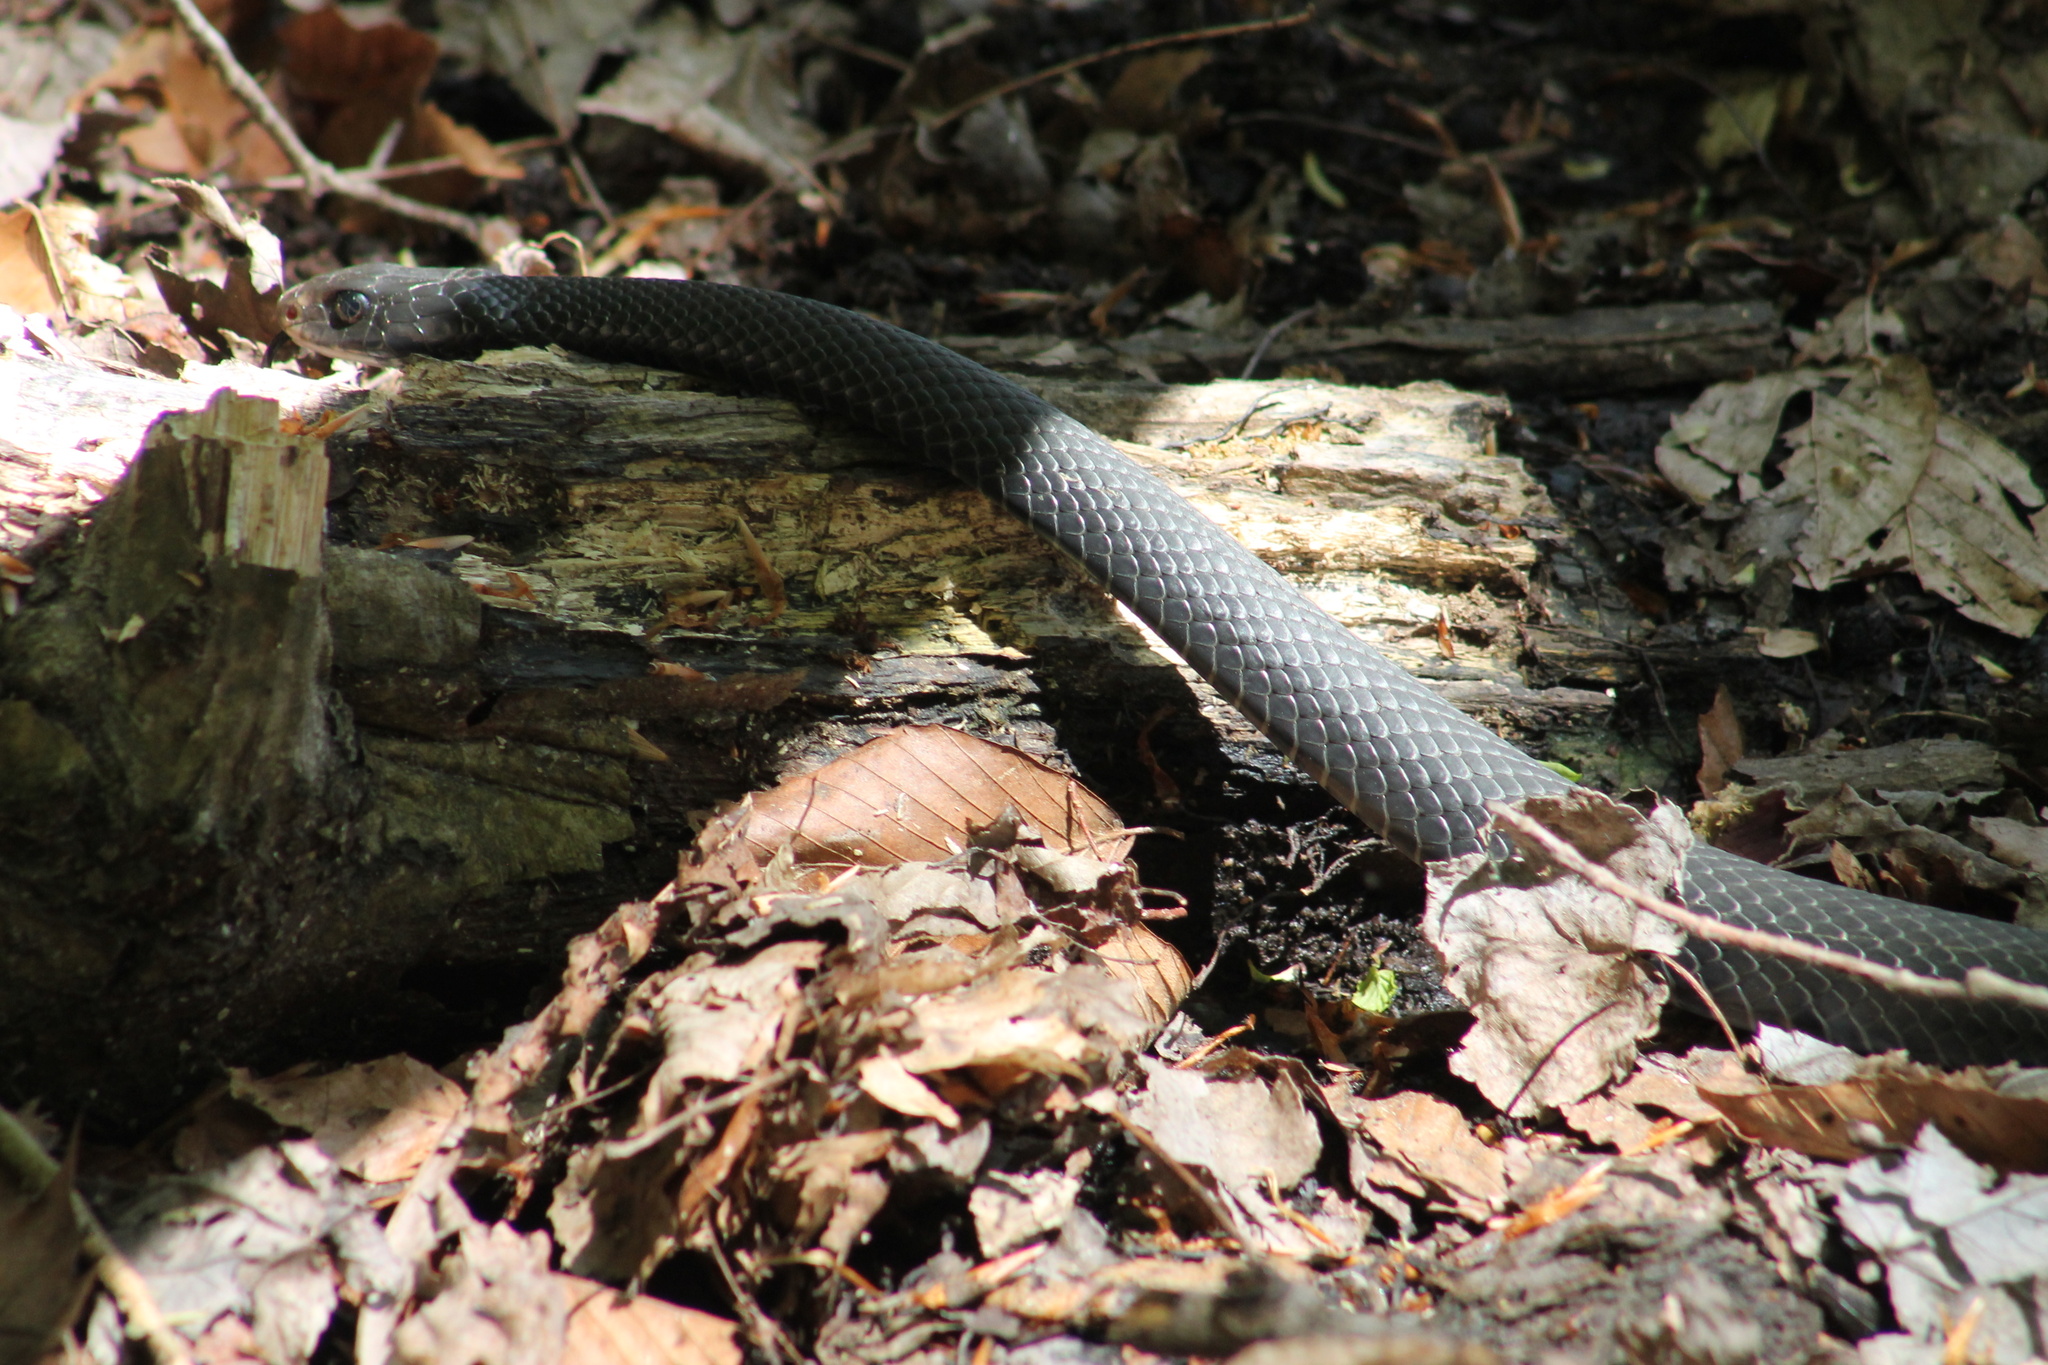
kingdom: Animalia
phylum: Chordata
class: Squamata
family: Colubridae
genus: Coluber
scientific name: Coluber constrictor
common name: Eastern racer
